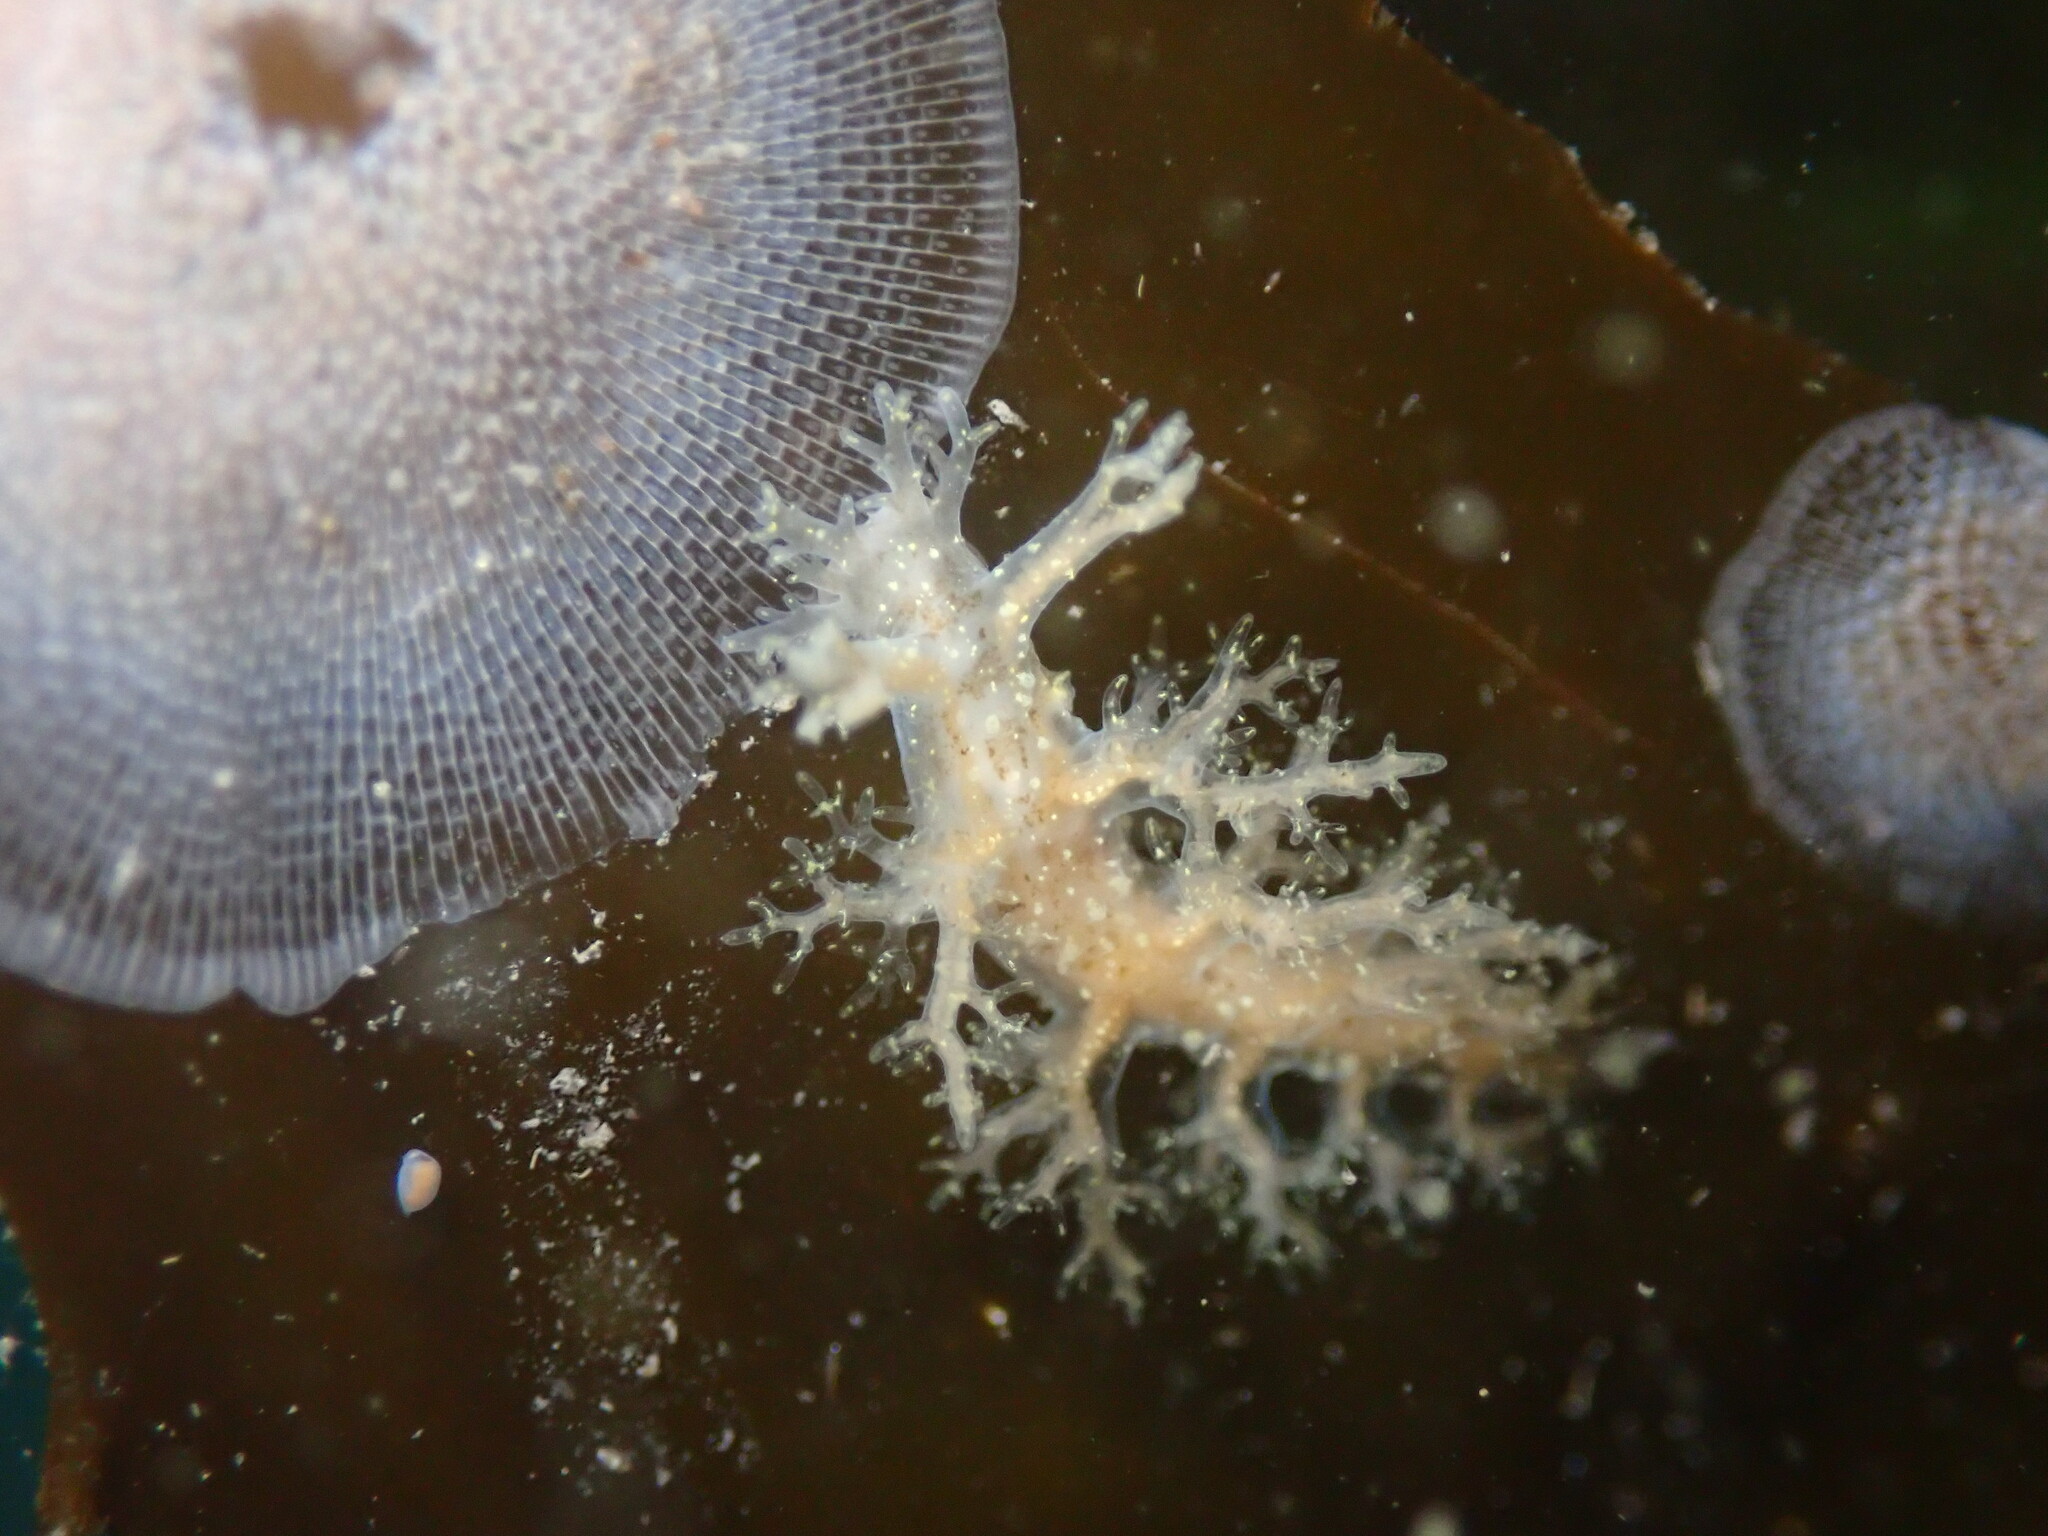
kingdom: Animalia
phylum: Mollusca
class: Gastropoda
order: Nudibranchia
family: Dendronotidae
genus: Dendronotus
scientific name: Dendronotus venustus
